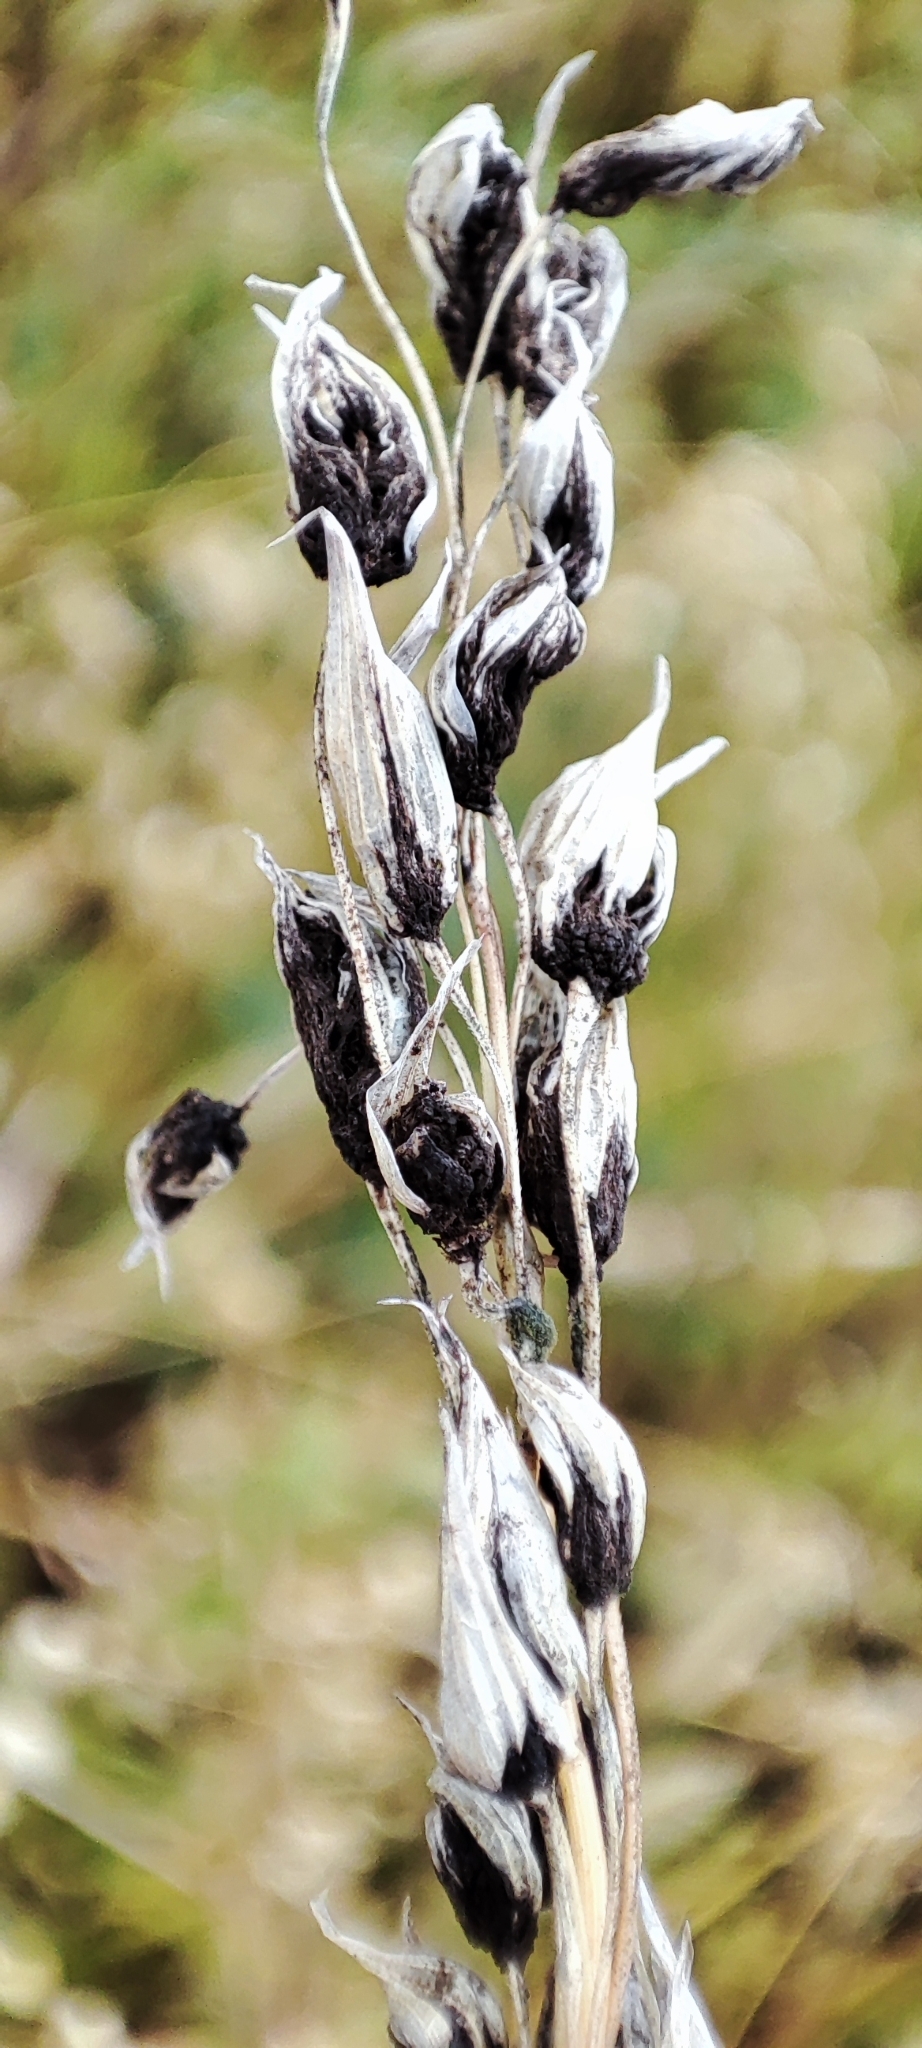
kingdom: Fungi
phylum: Basidiomycota
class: Ustilaginomycetes
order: Ustilaginales
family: Ustilaginaceae
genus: Ustilago
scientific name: Ustilago avenae
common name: Loose smut of oats & oat grass
